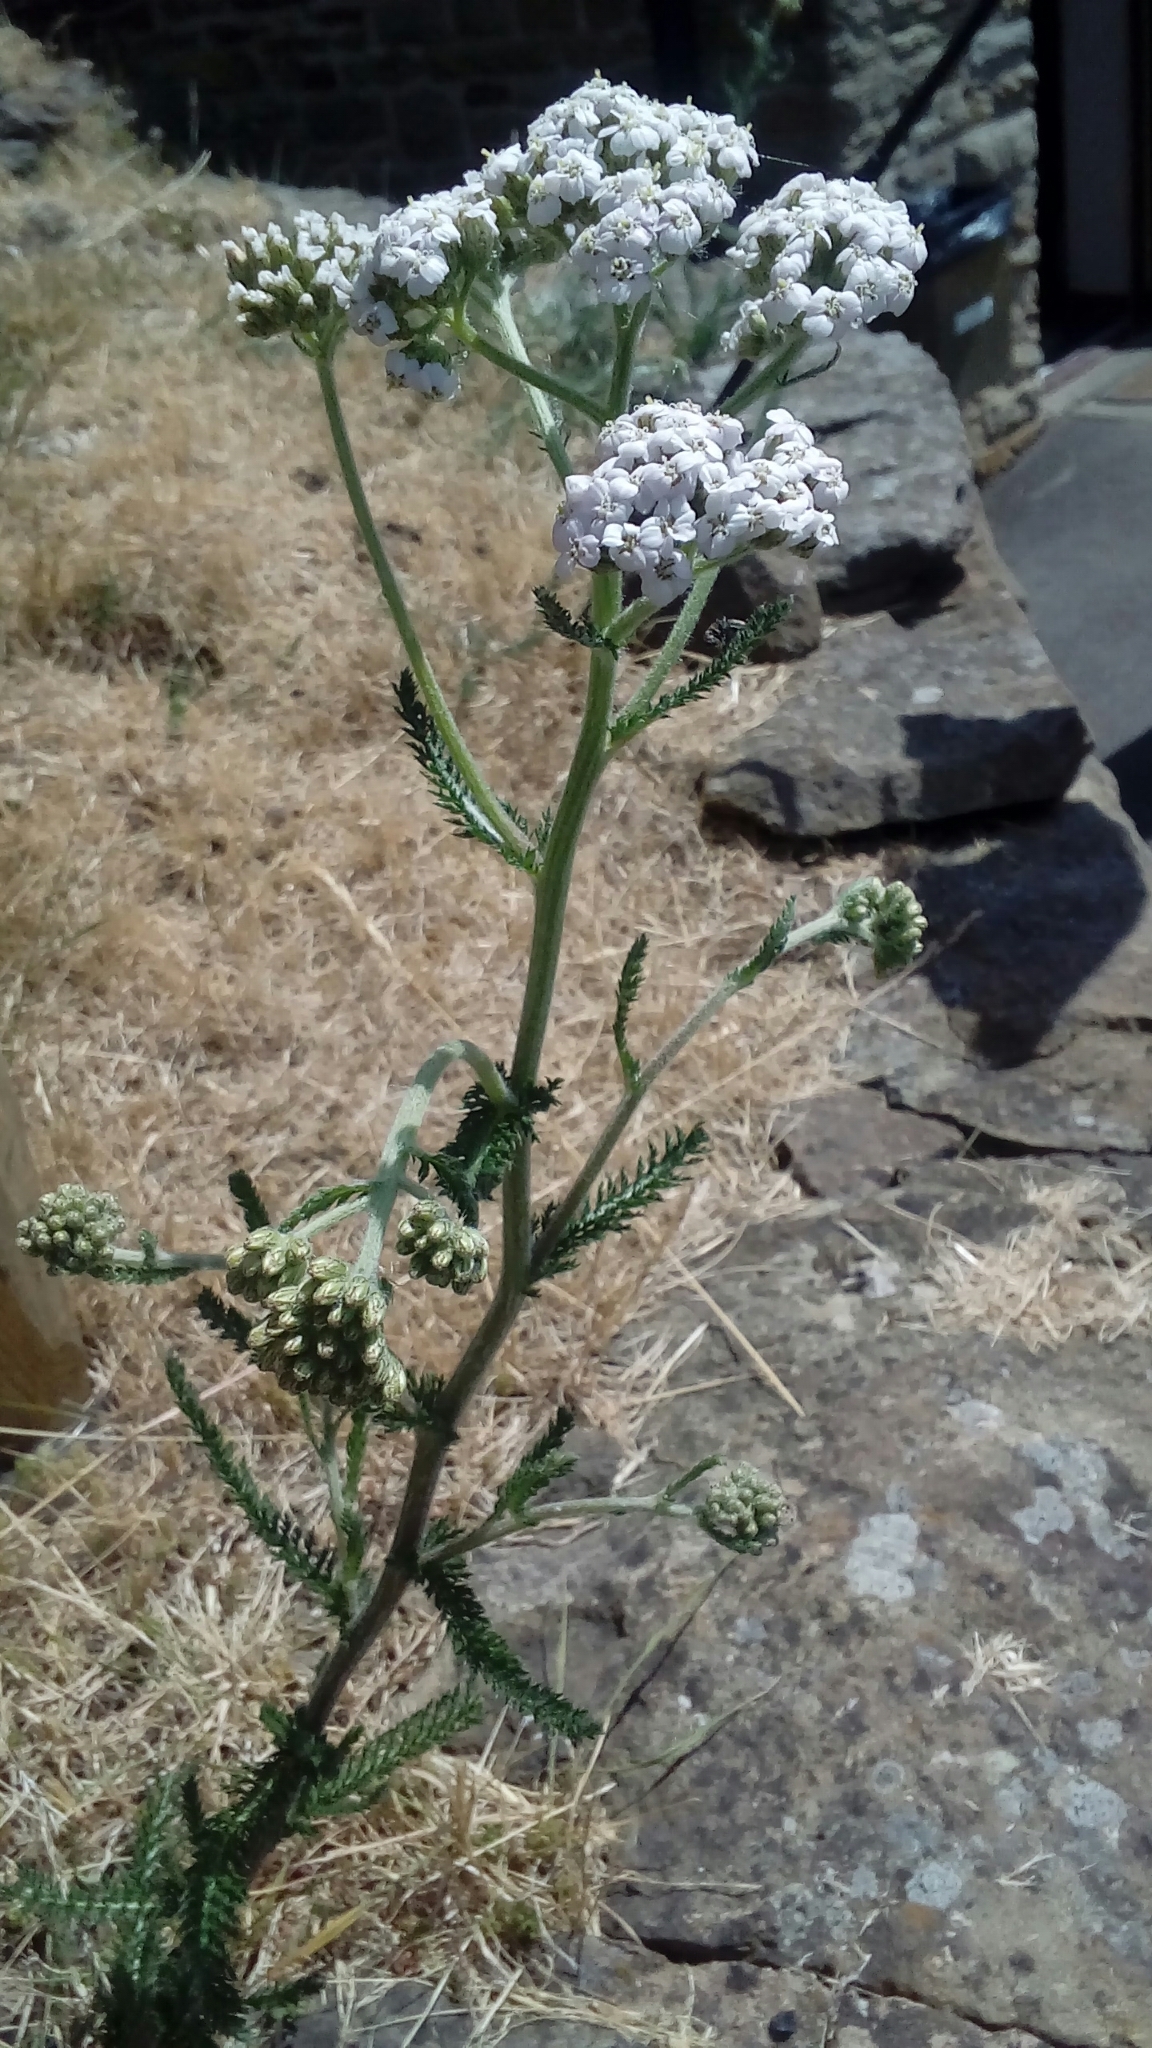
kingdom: Plantae
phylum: Tracheophyta
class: Magnoliopsida
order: Asterales
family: Asteraceae
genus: Achillea
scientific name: Achillea millefolium
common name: Yarrow
